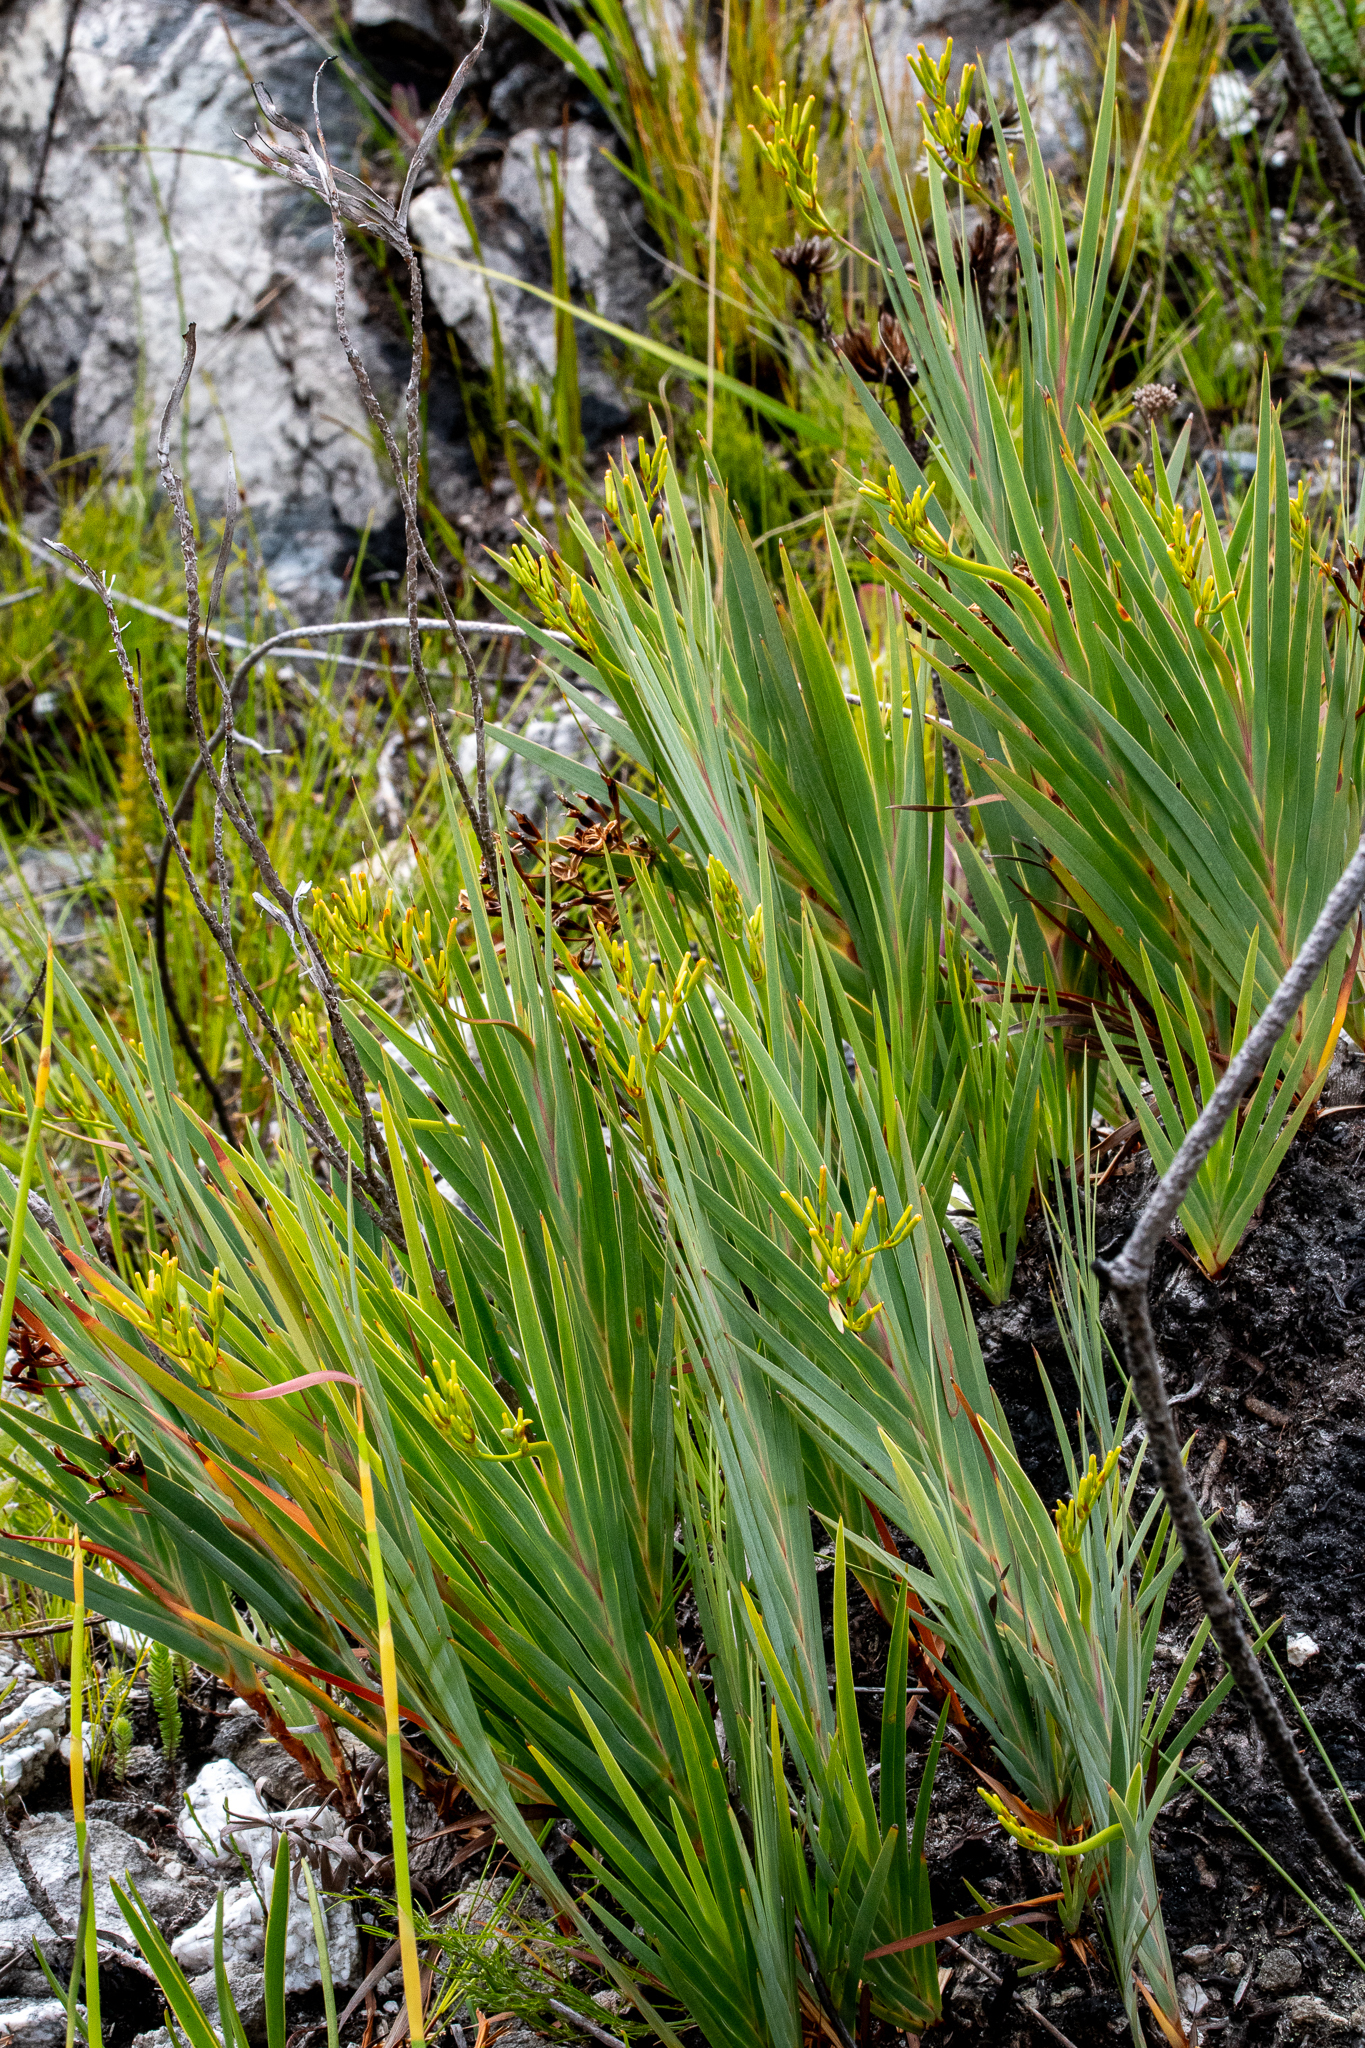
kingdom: Plantae
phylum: Tracheophyta
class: Liliopsida
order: Asparagales
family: Iridaceae
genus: Nivenia
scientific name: Nivenia stokoei
